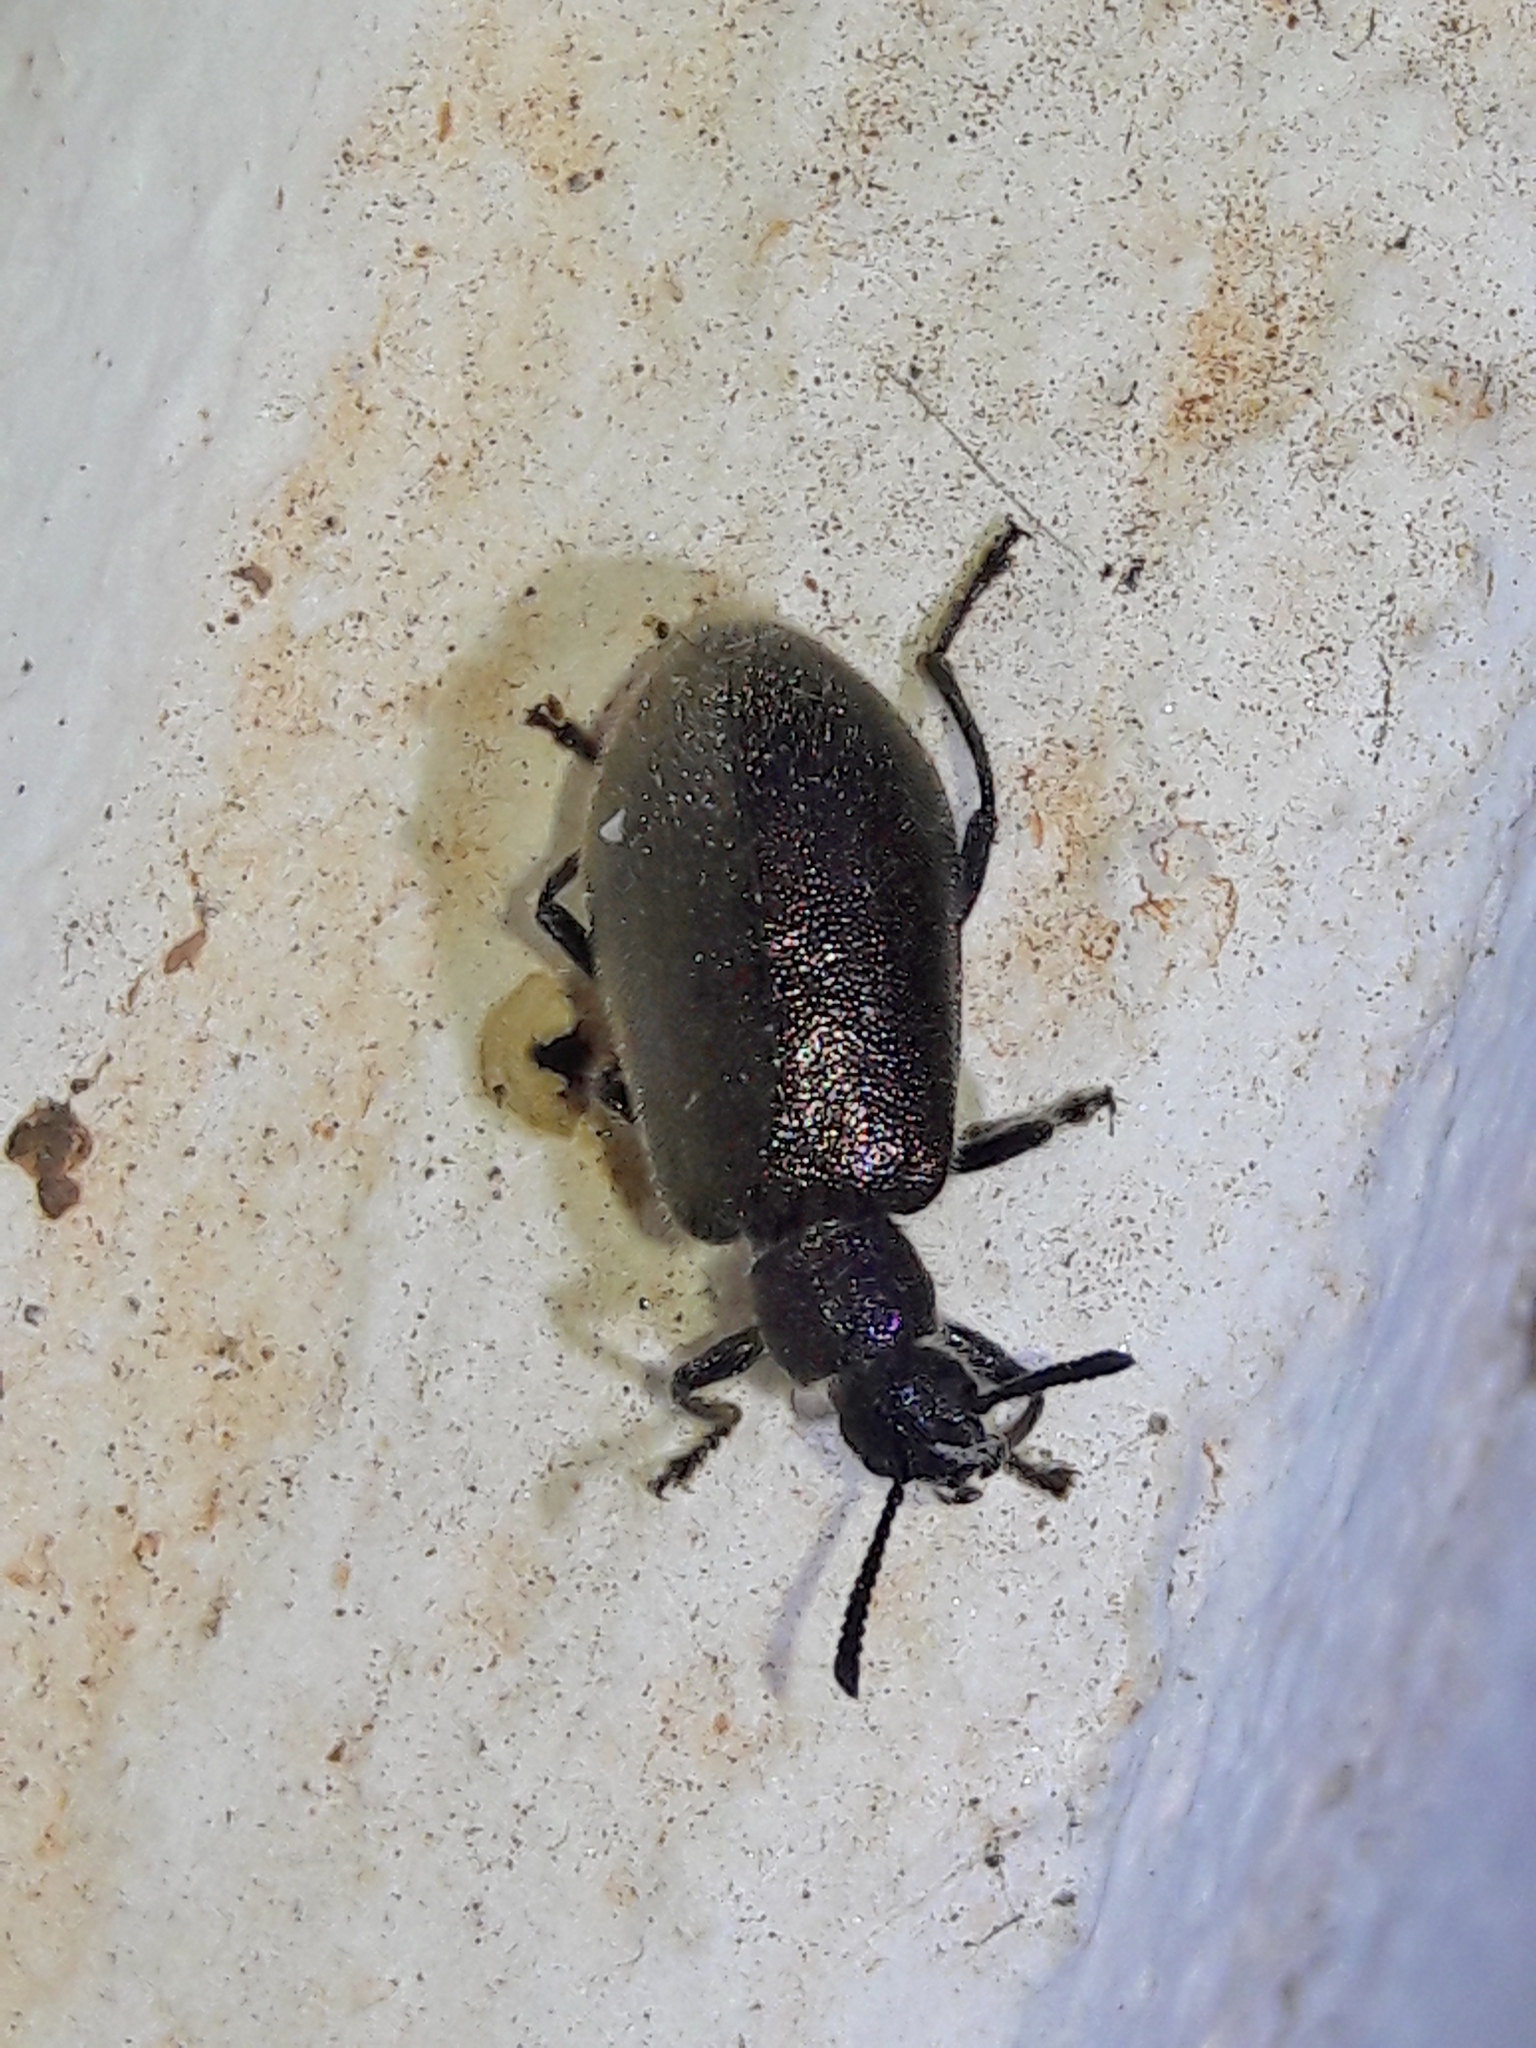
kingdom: Animalia
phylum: Arthropoda
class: Insecta
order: Coleoptera
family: Tenebrionidae
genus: Lagria
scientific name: Lagria villosa
